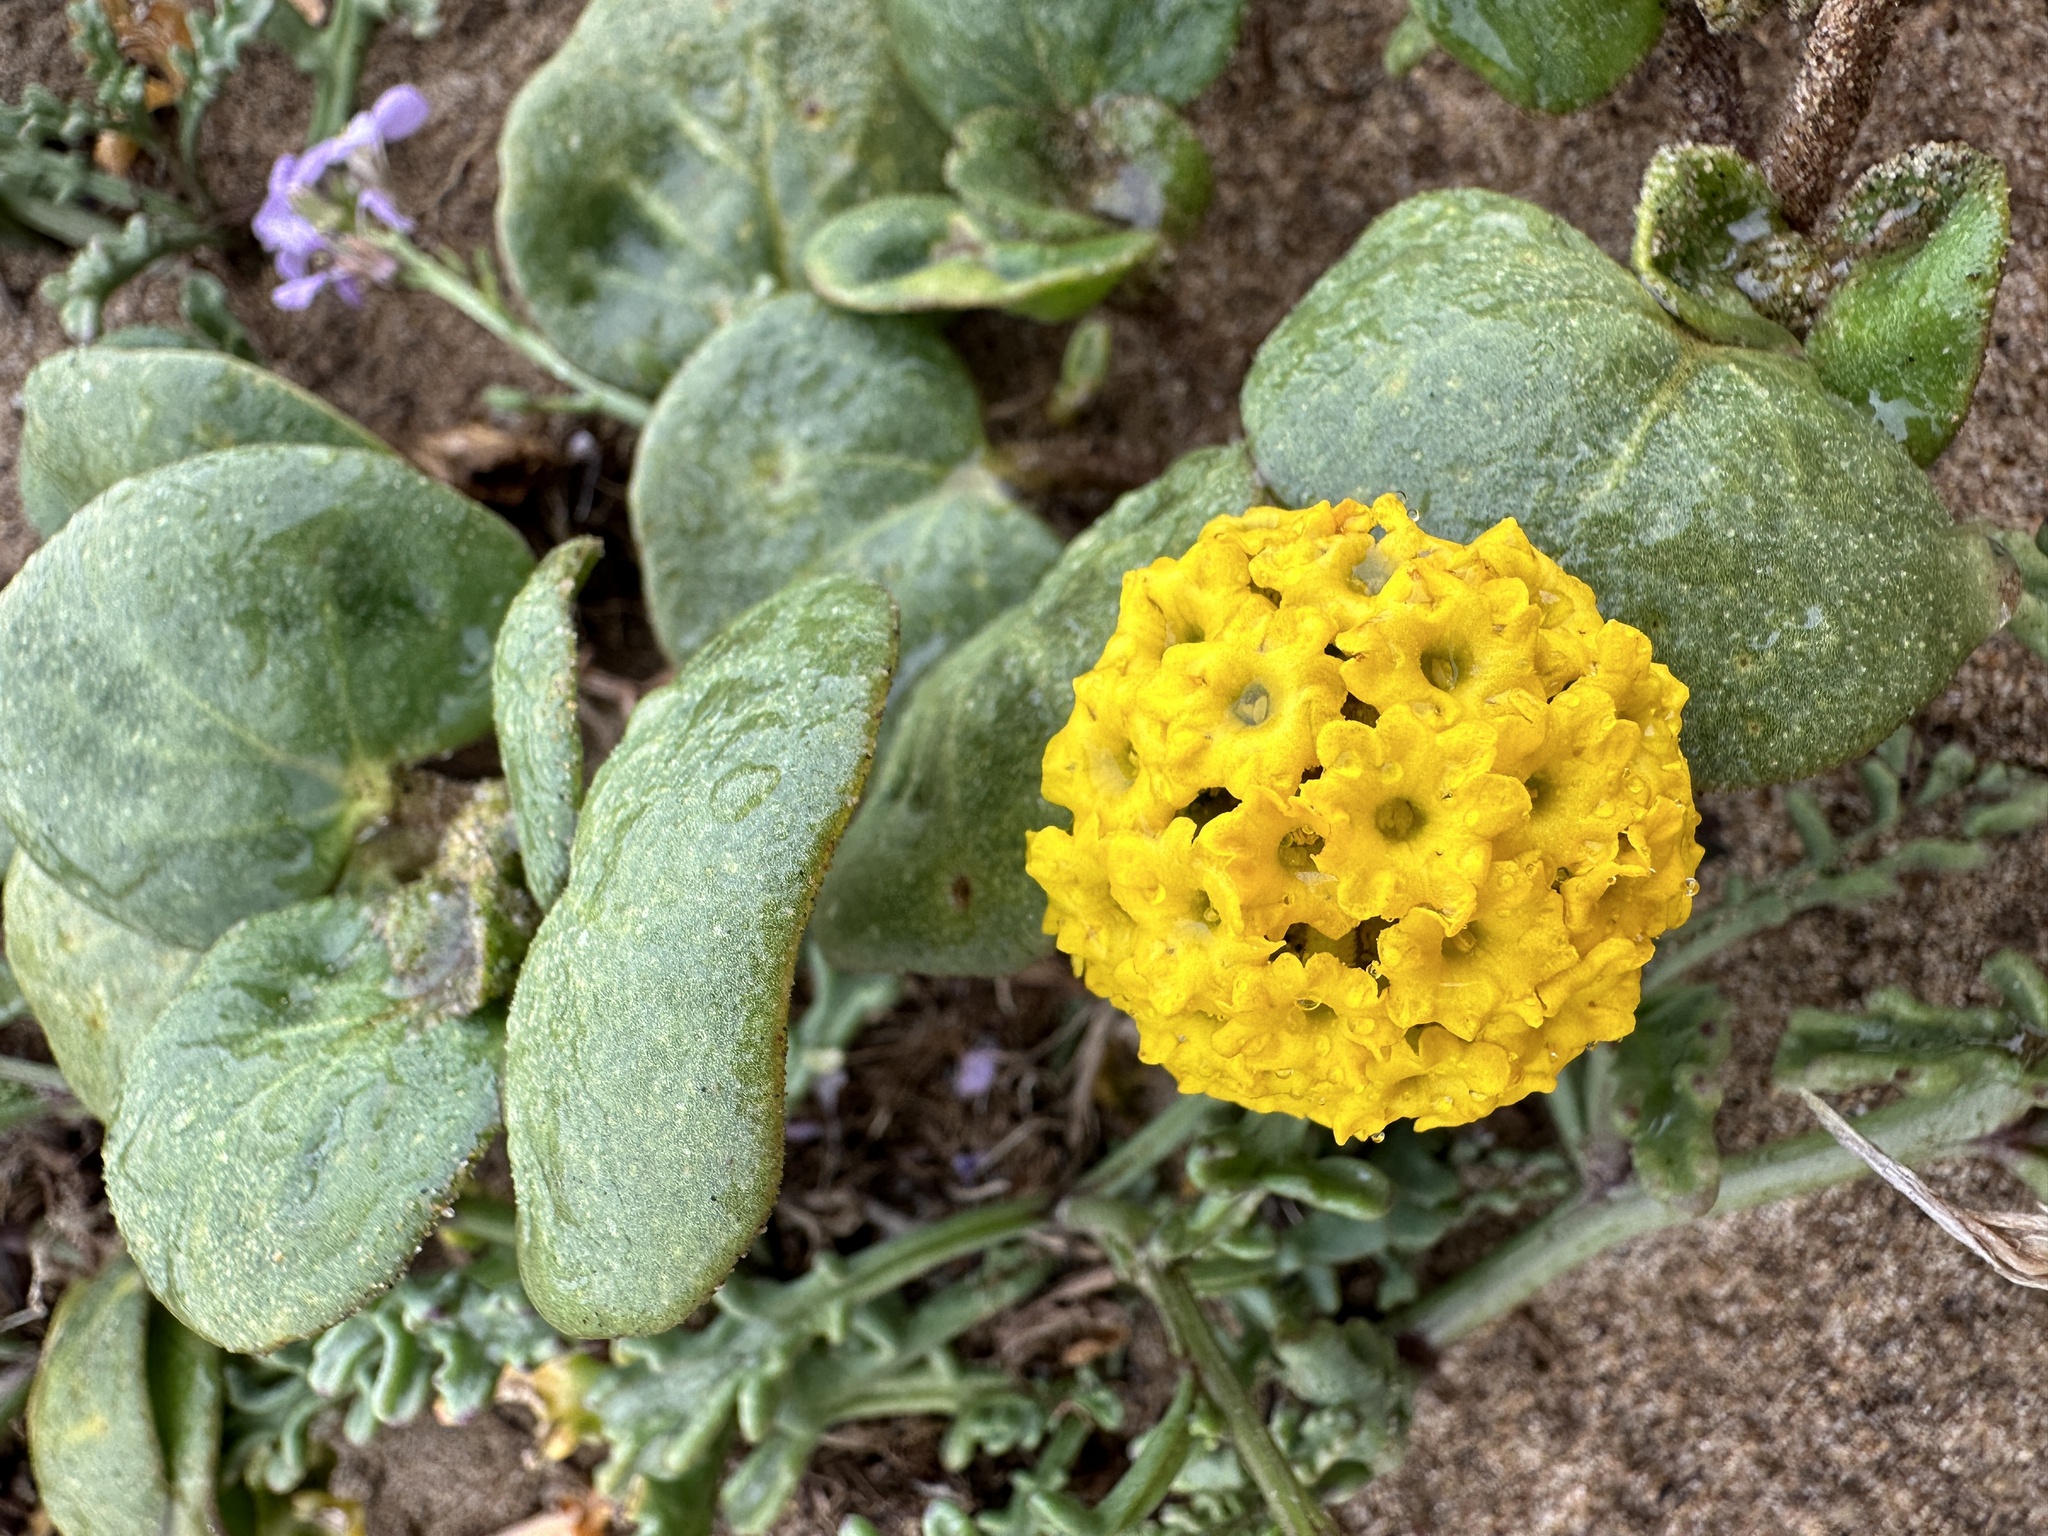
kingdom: Plantae
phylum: Tracheophyta
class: Magnoliopsida
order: Caryophyllales
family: Nyctaginaceae
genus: Abronia
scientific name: Abronia latifolia
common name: Yellow sand-verbena
